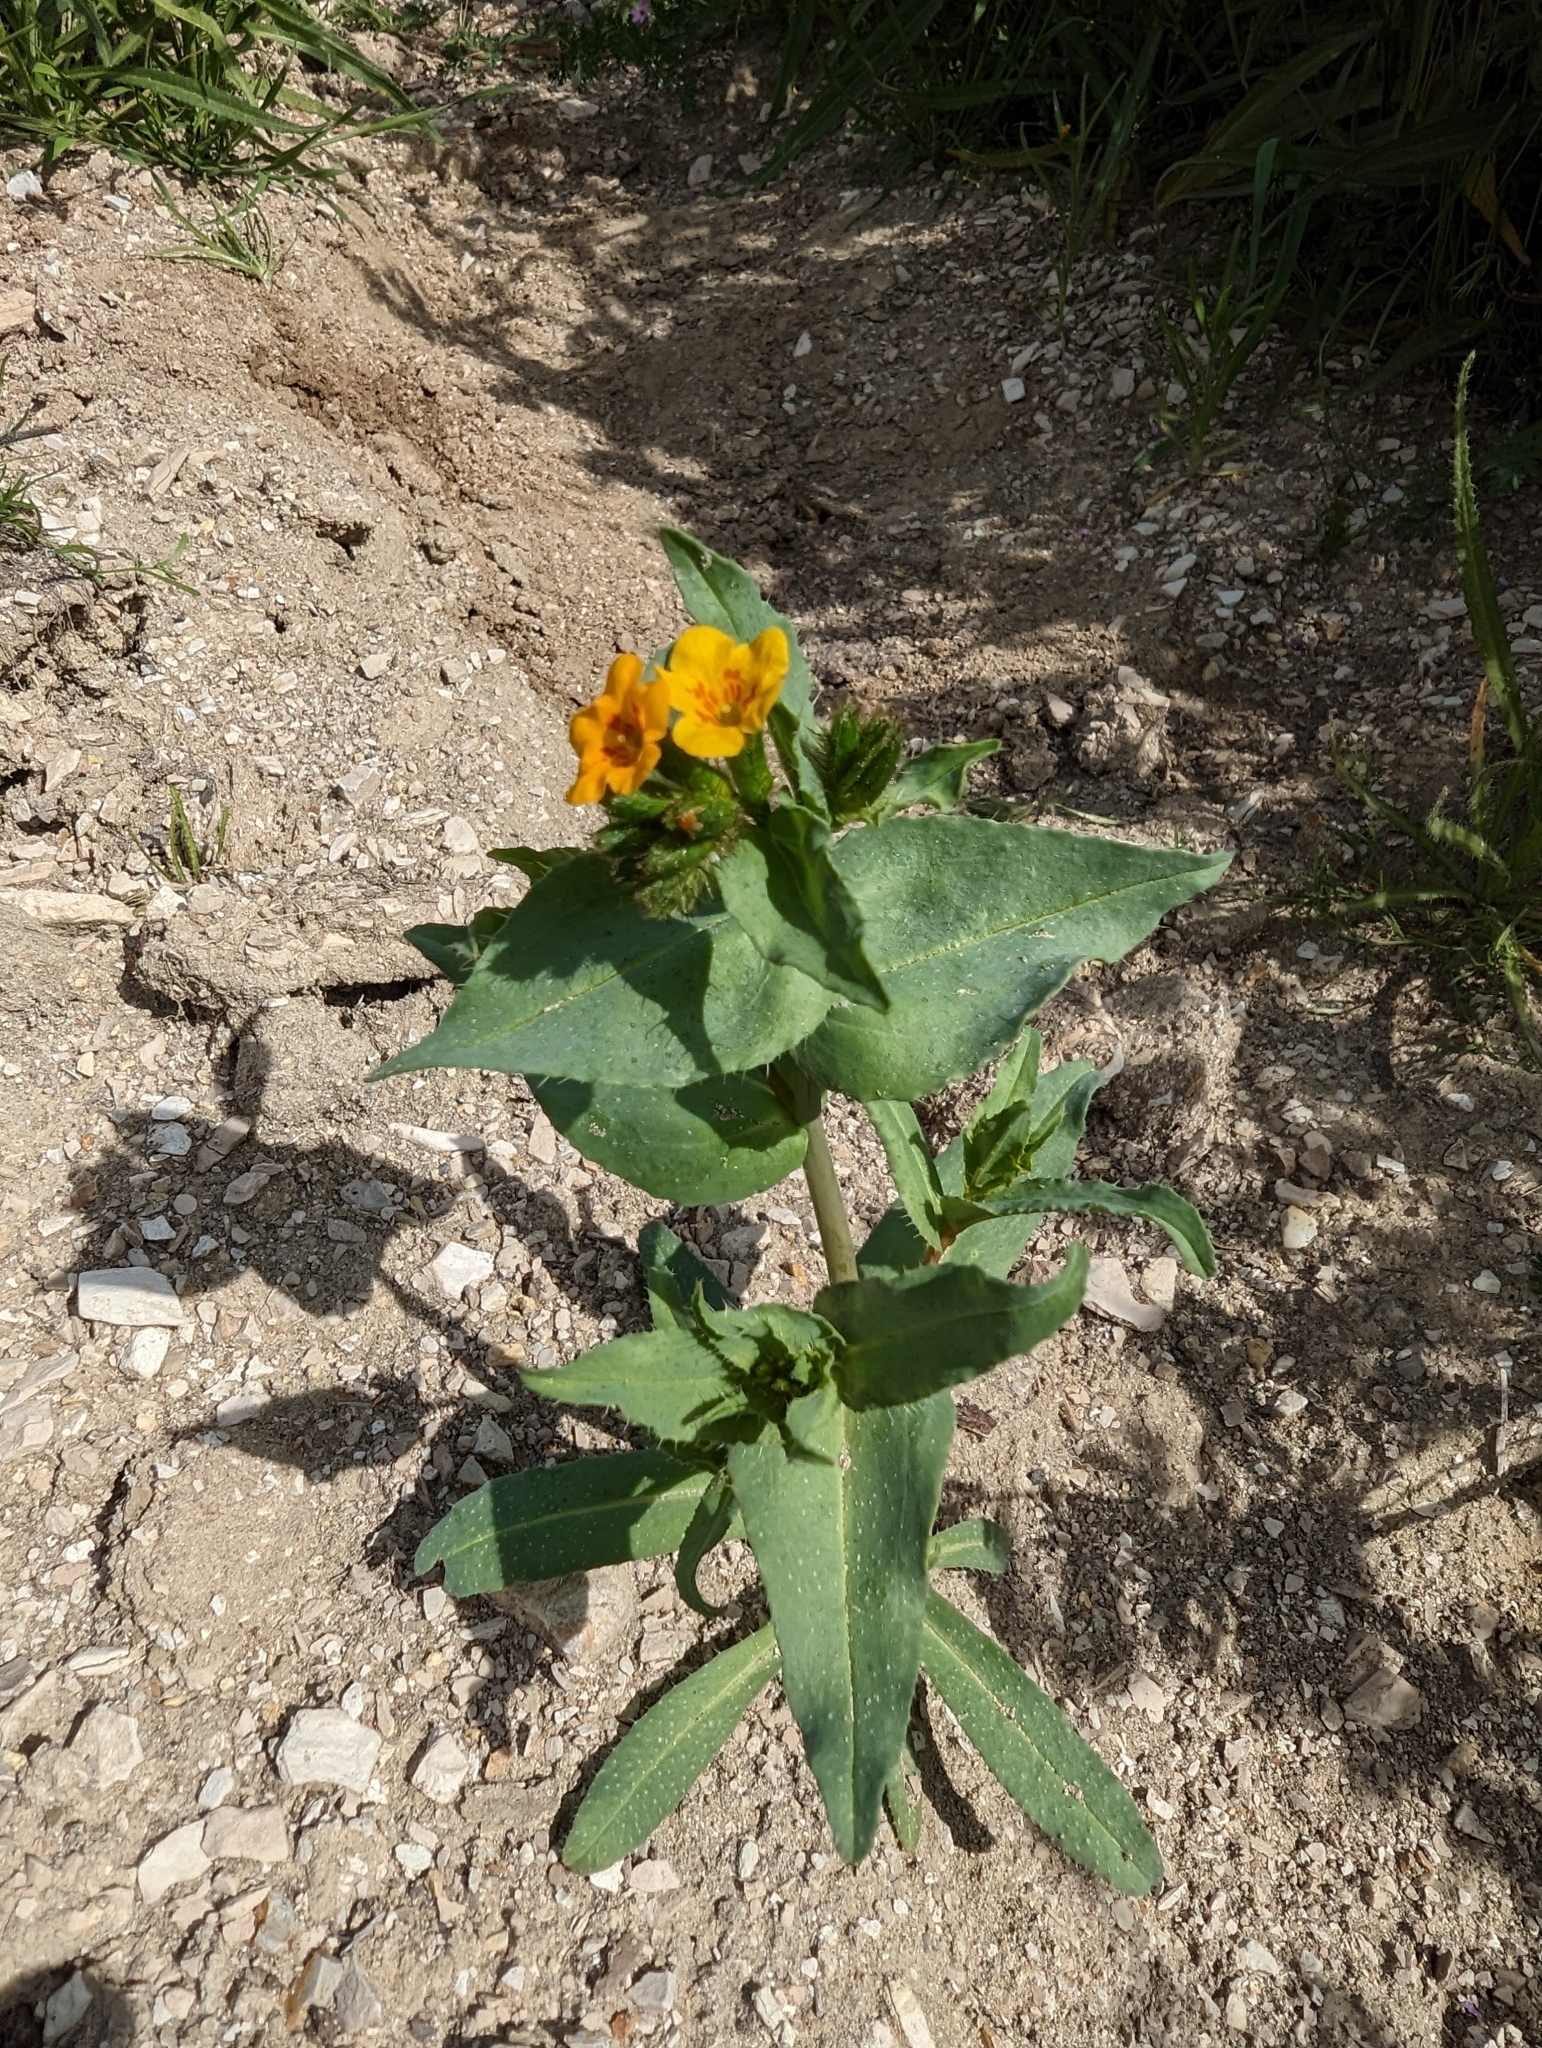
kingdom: Plantae
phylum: Tracheophyta
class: Magnoliopsida
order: Boraginales
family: Boraginaceae
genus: Amsinckia
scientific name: Amsinckia vernicosa
